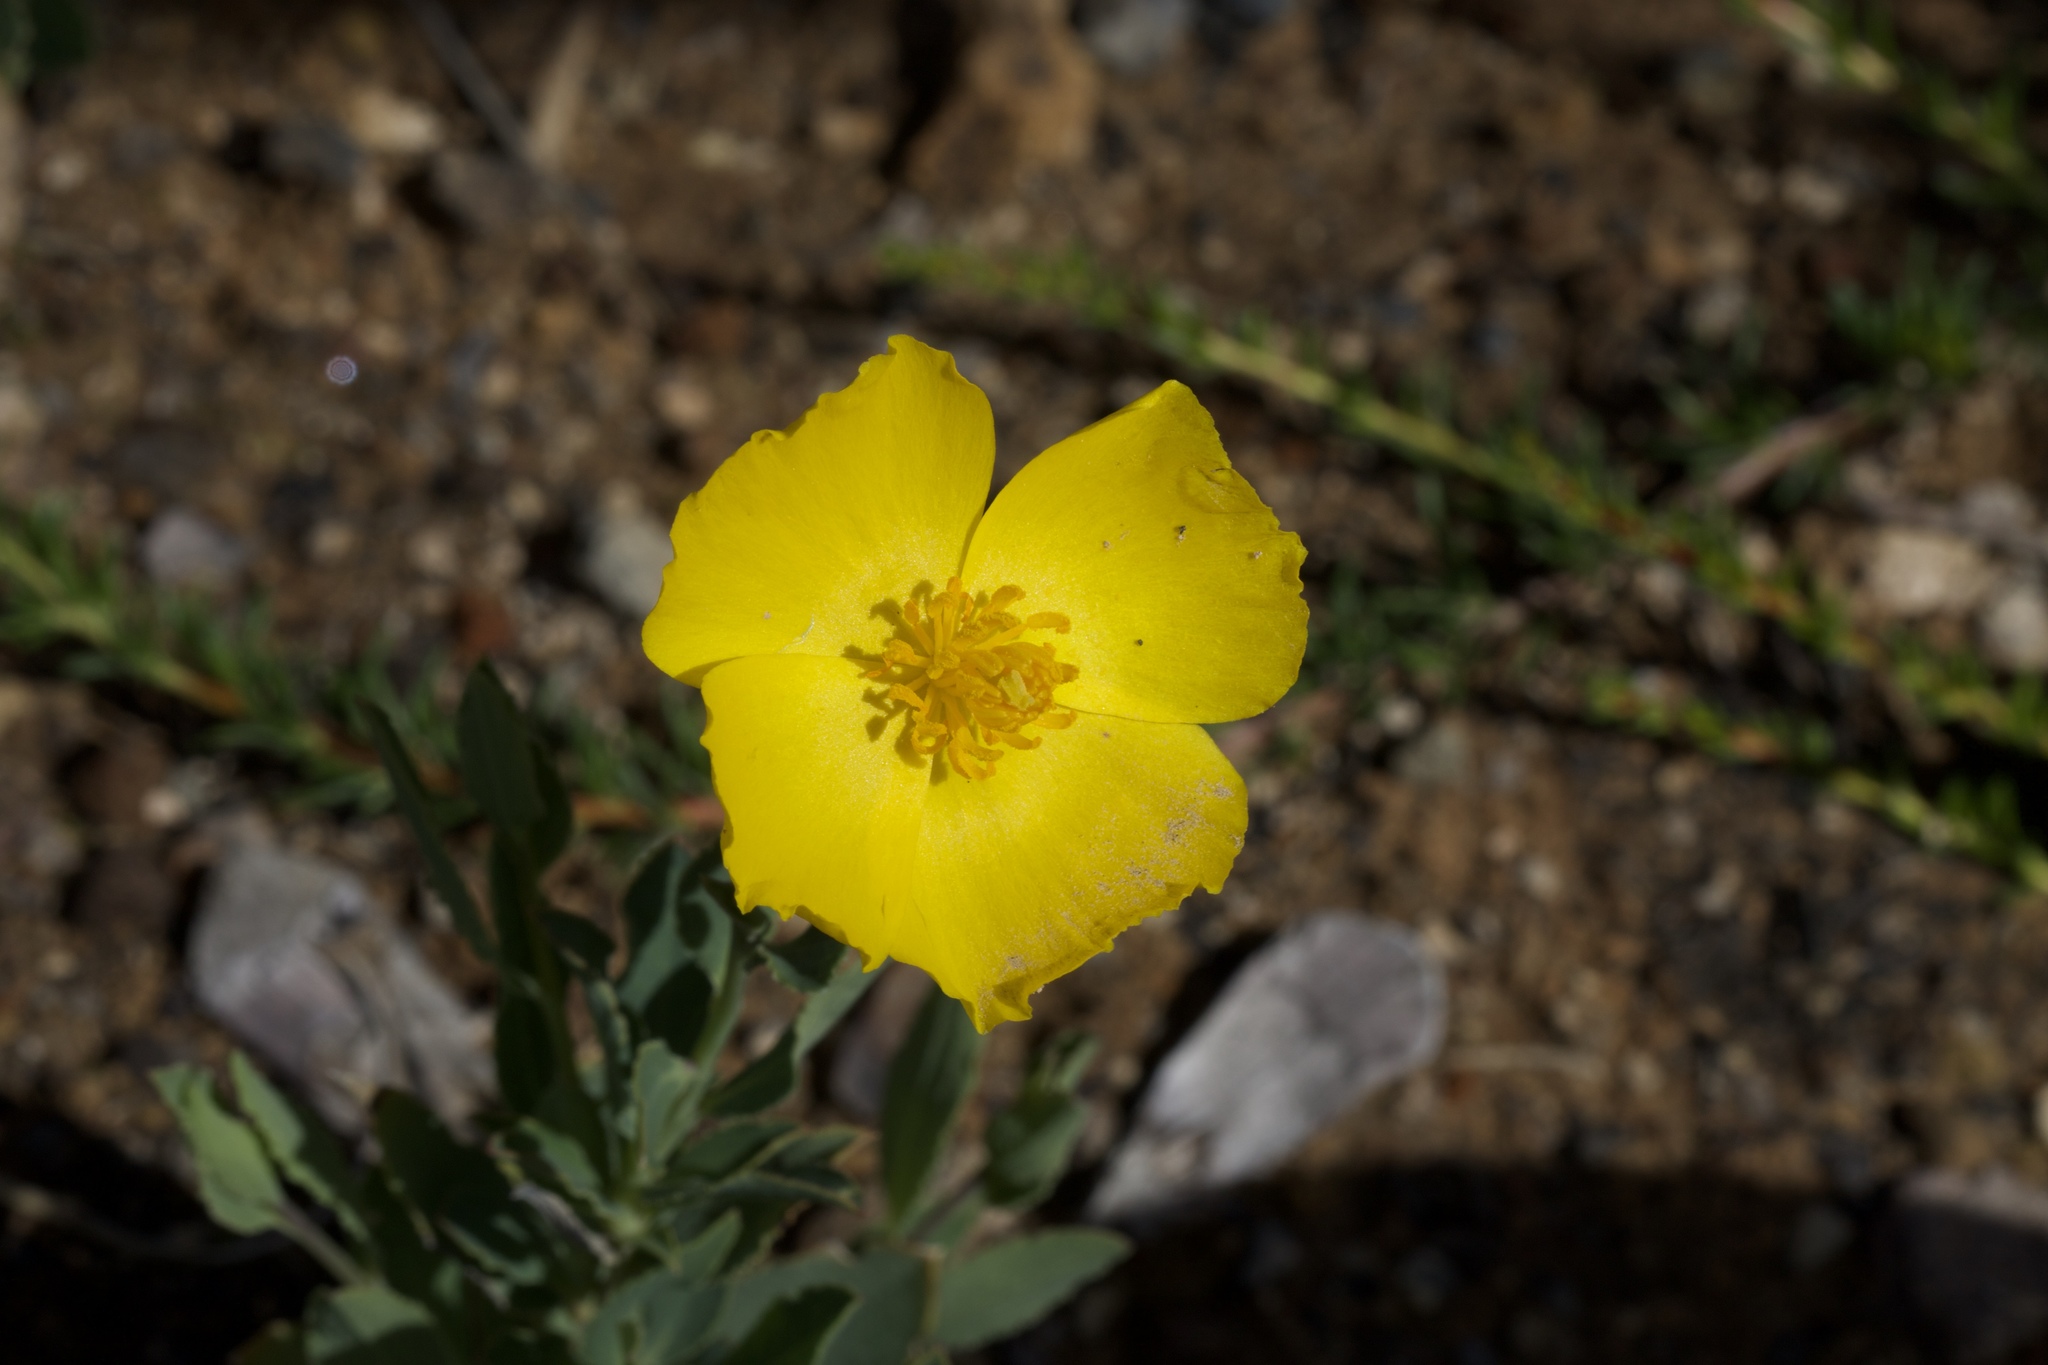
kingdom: Plantae
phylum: Tracheophyta
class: Magnoliopsida
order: Ranunculales
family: Papaveraceae
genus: Dendromecon
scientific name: Dendromecon rigida
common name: Tree poppy
